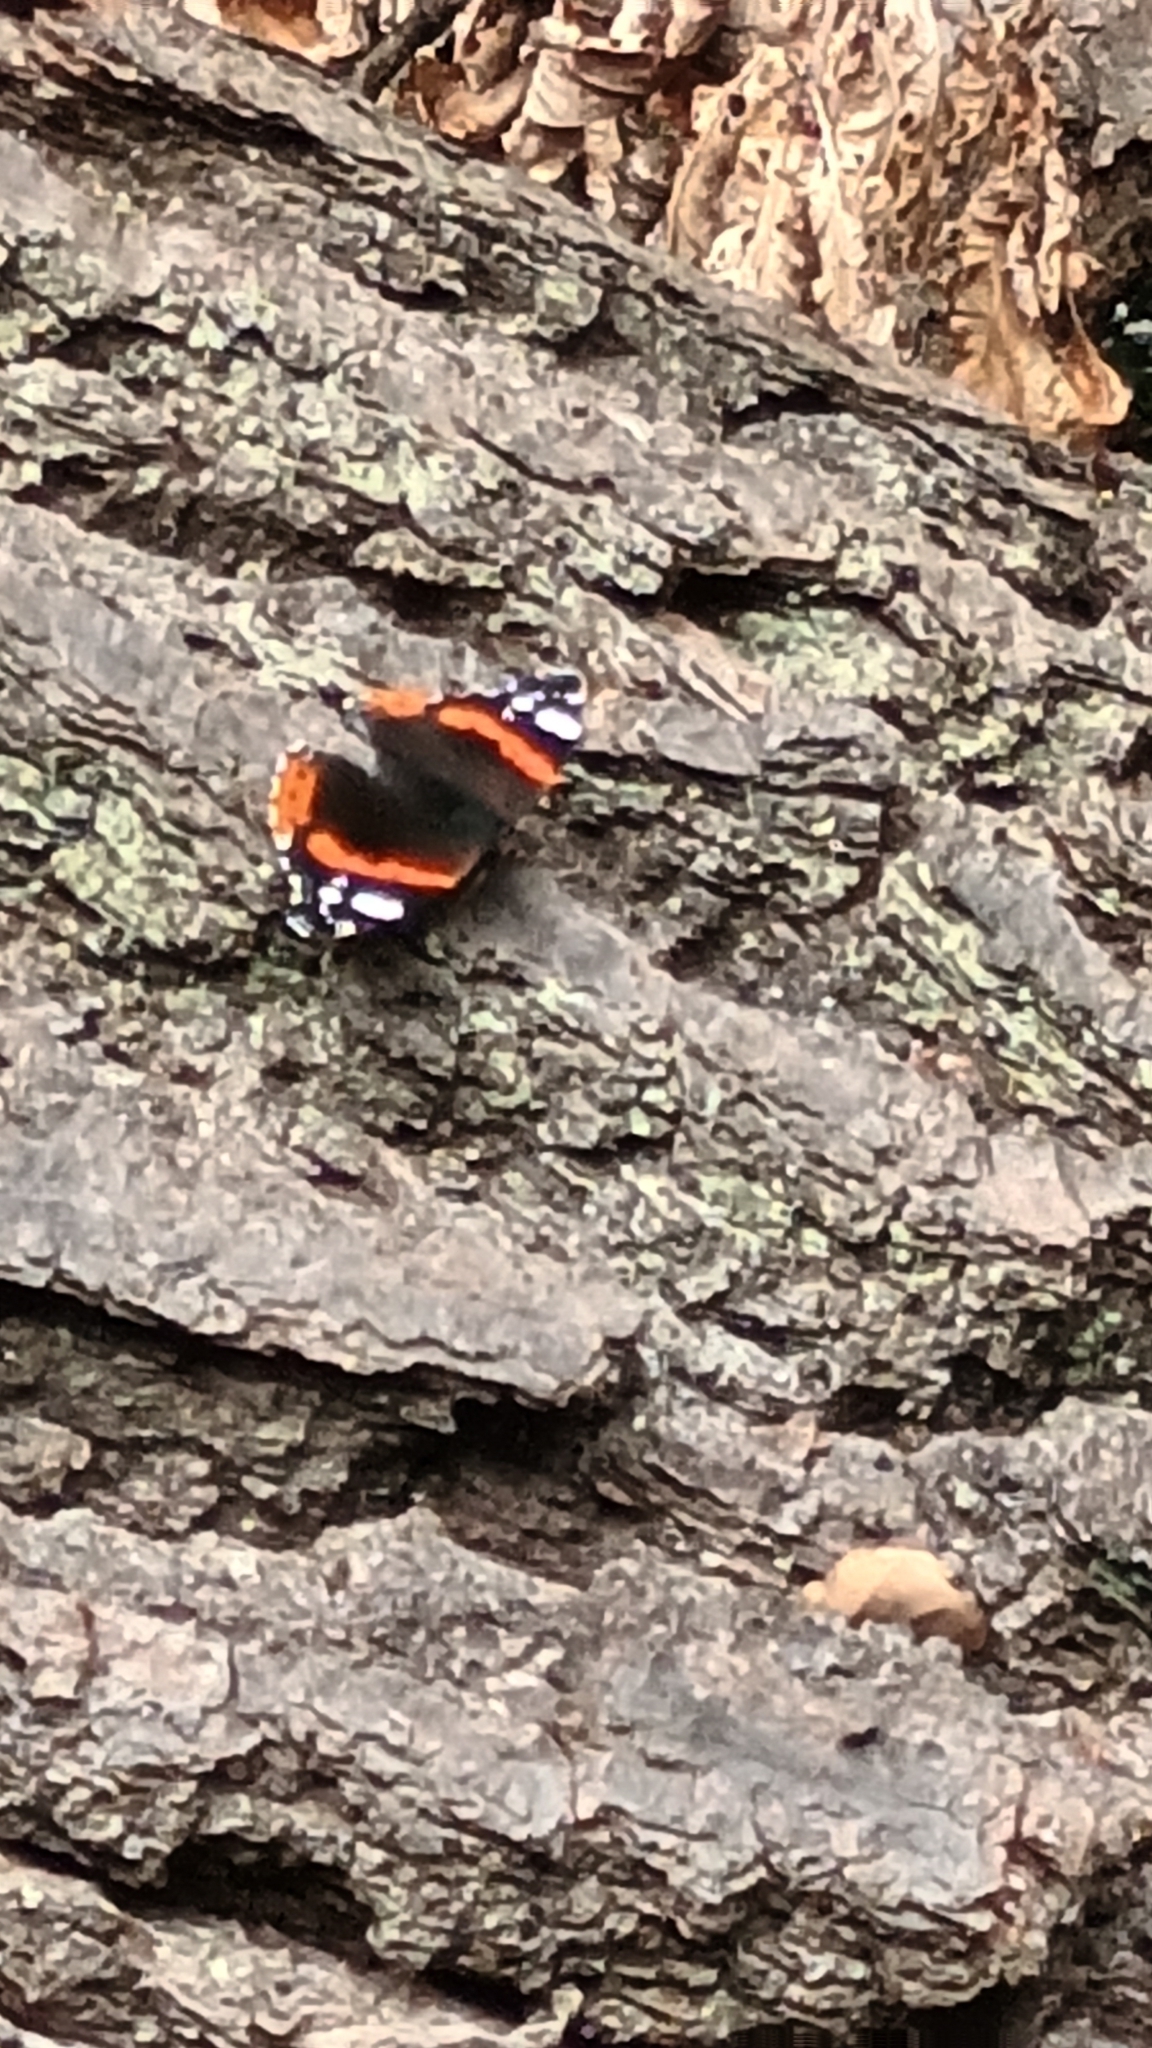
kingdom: Animalia
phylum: Arthropoda
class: Insecta
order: Lepidoptera
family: Nymphalidae
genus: Vanessa
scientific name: Vanessa atalanta
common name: Red admiral
